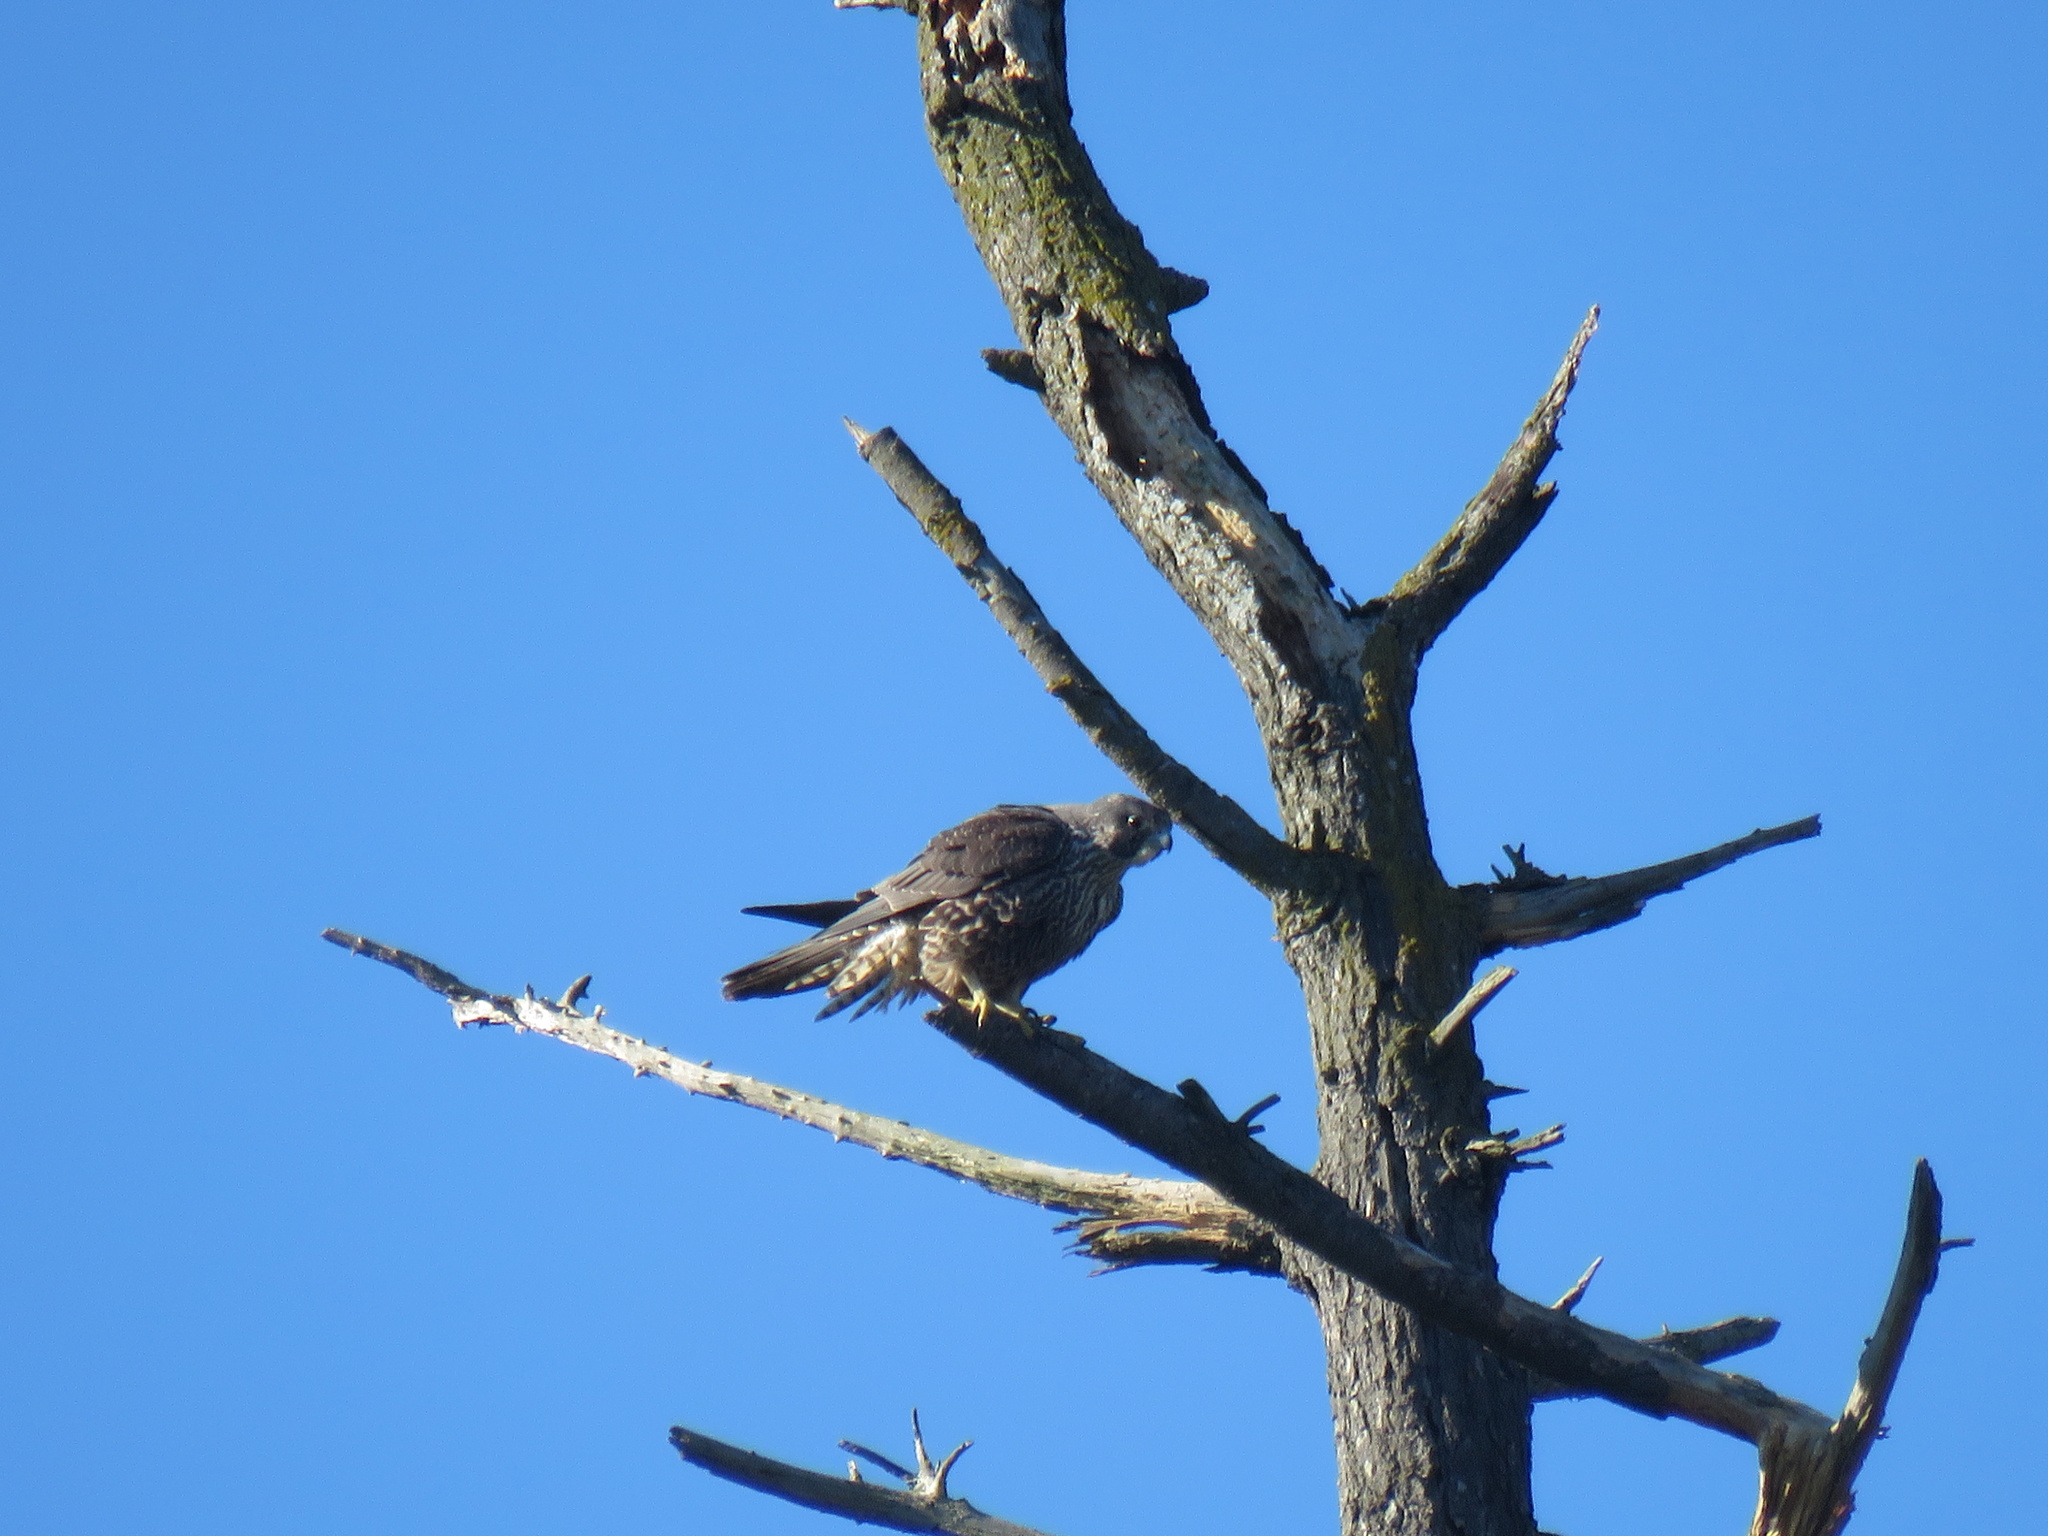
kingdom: Animalia
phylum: Chordata
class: Aves
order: Falconiformes
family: Falconidae
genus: Falco
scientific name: Falco peregrinus
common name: Peregrine falcon
